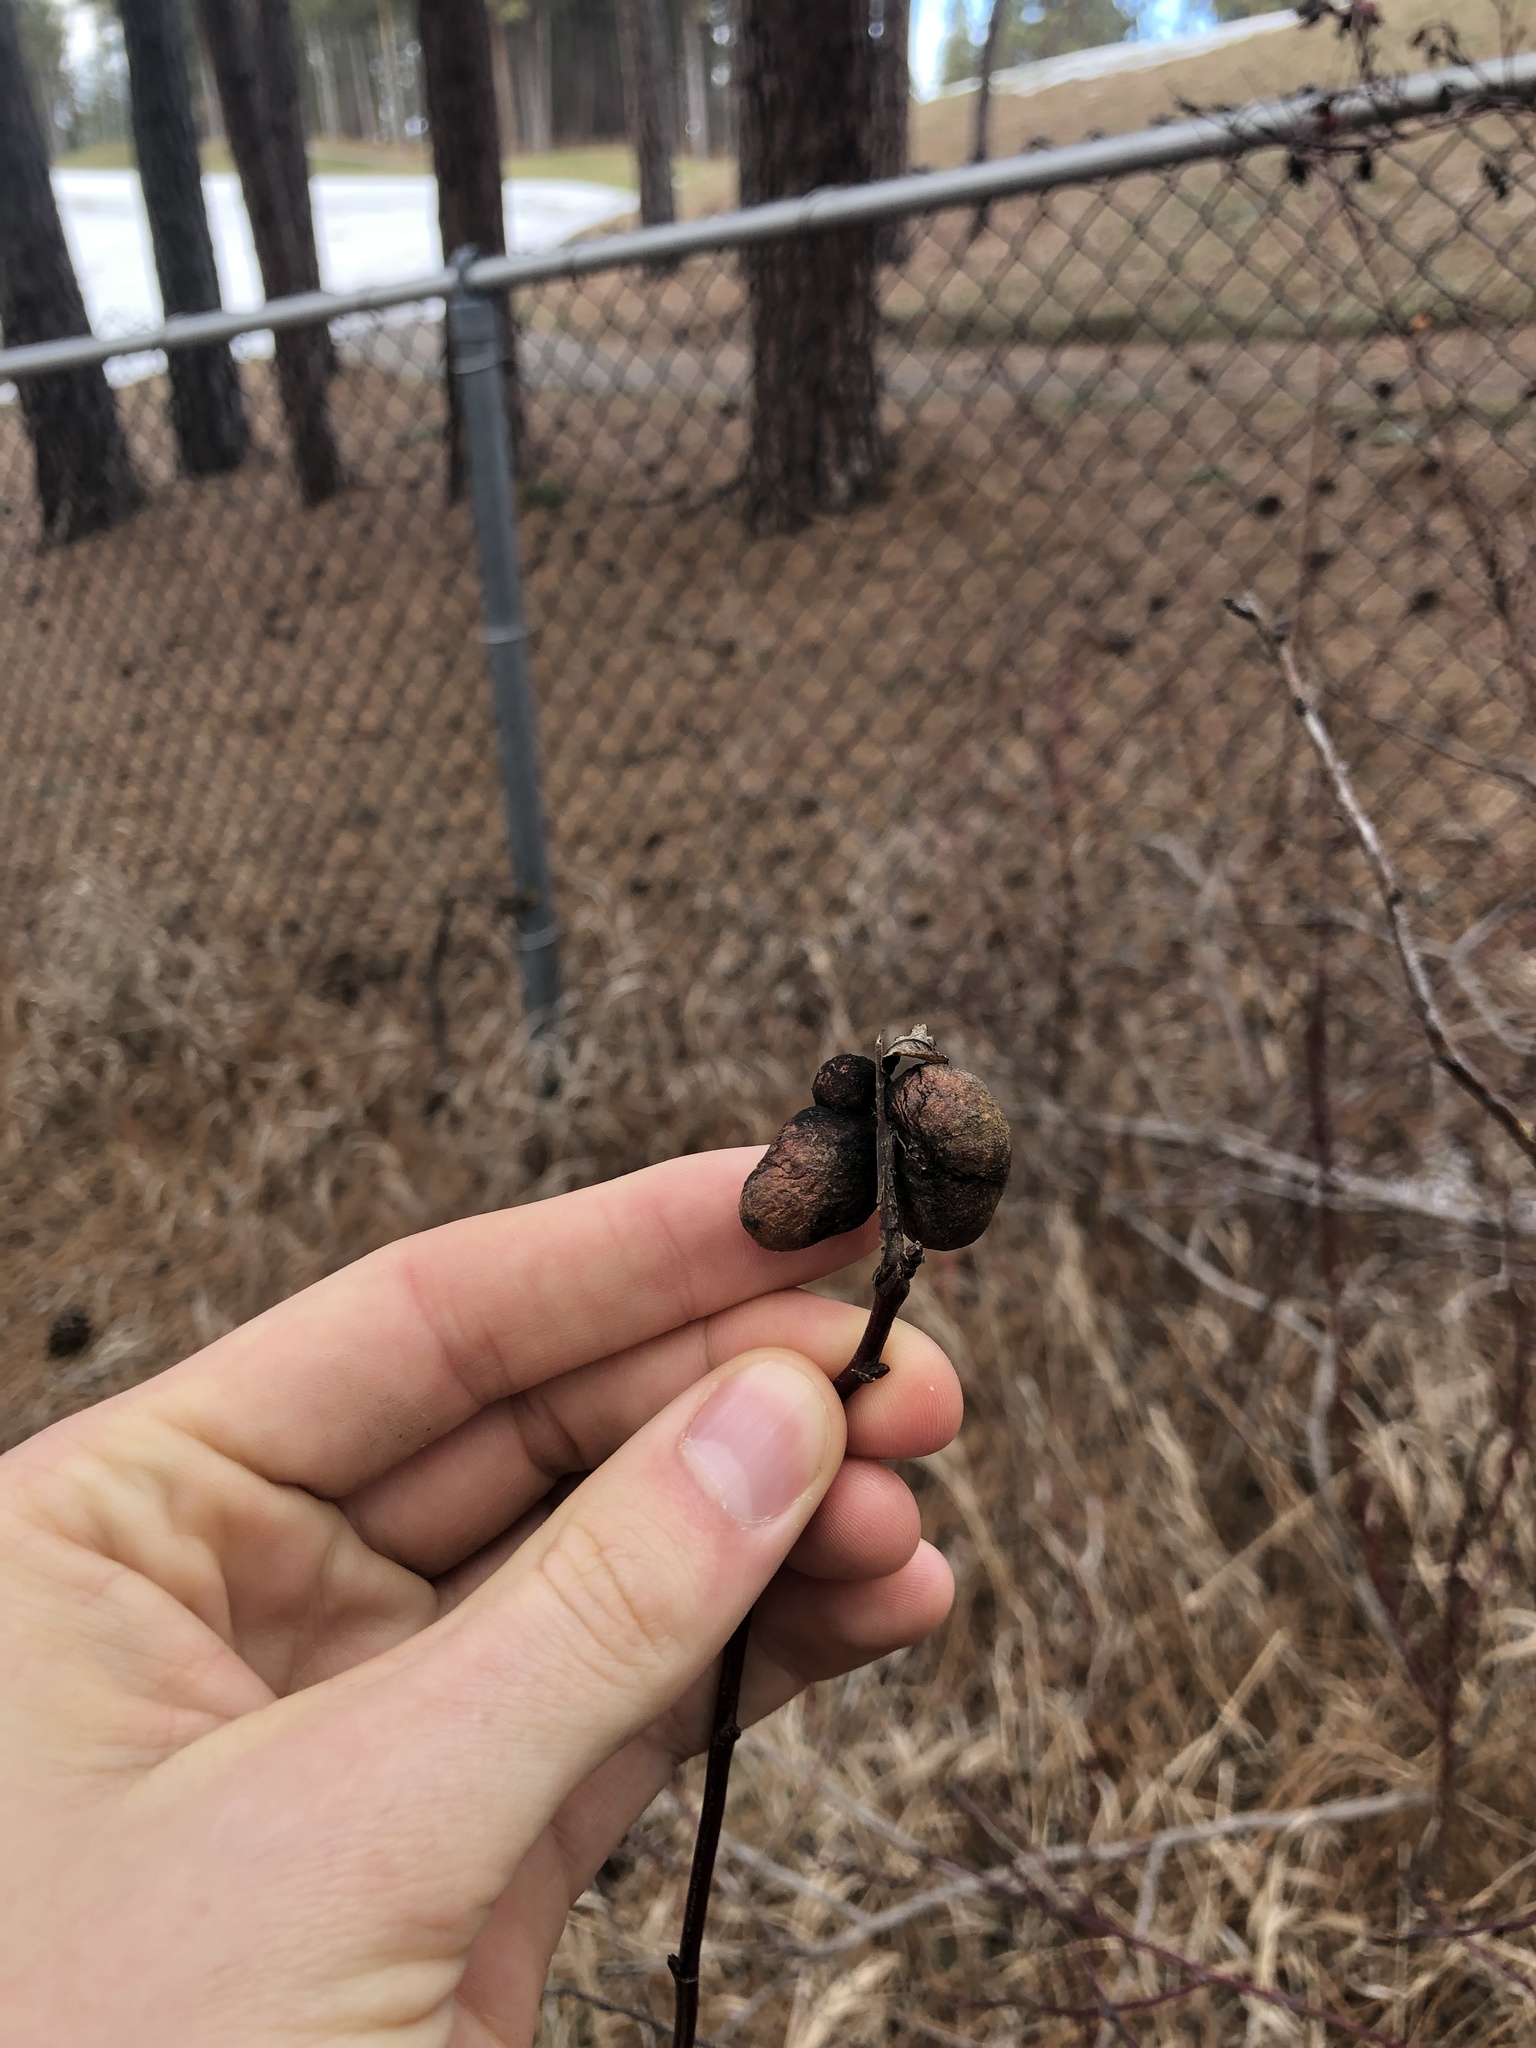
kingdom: Animalia
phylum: Arthropoda
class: Insecta
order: Hymenoptera
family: Cynipidae
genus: Diplolepis
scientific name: Diplolepis variabilis
